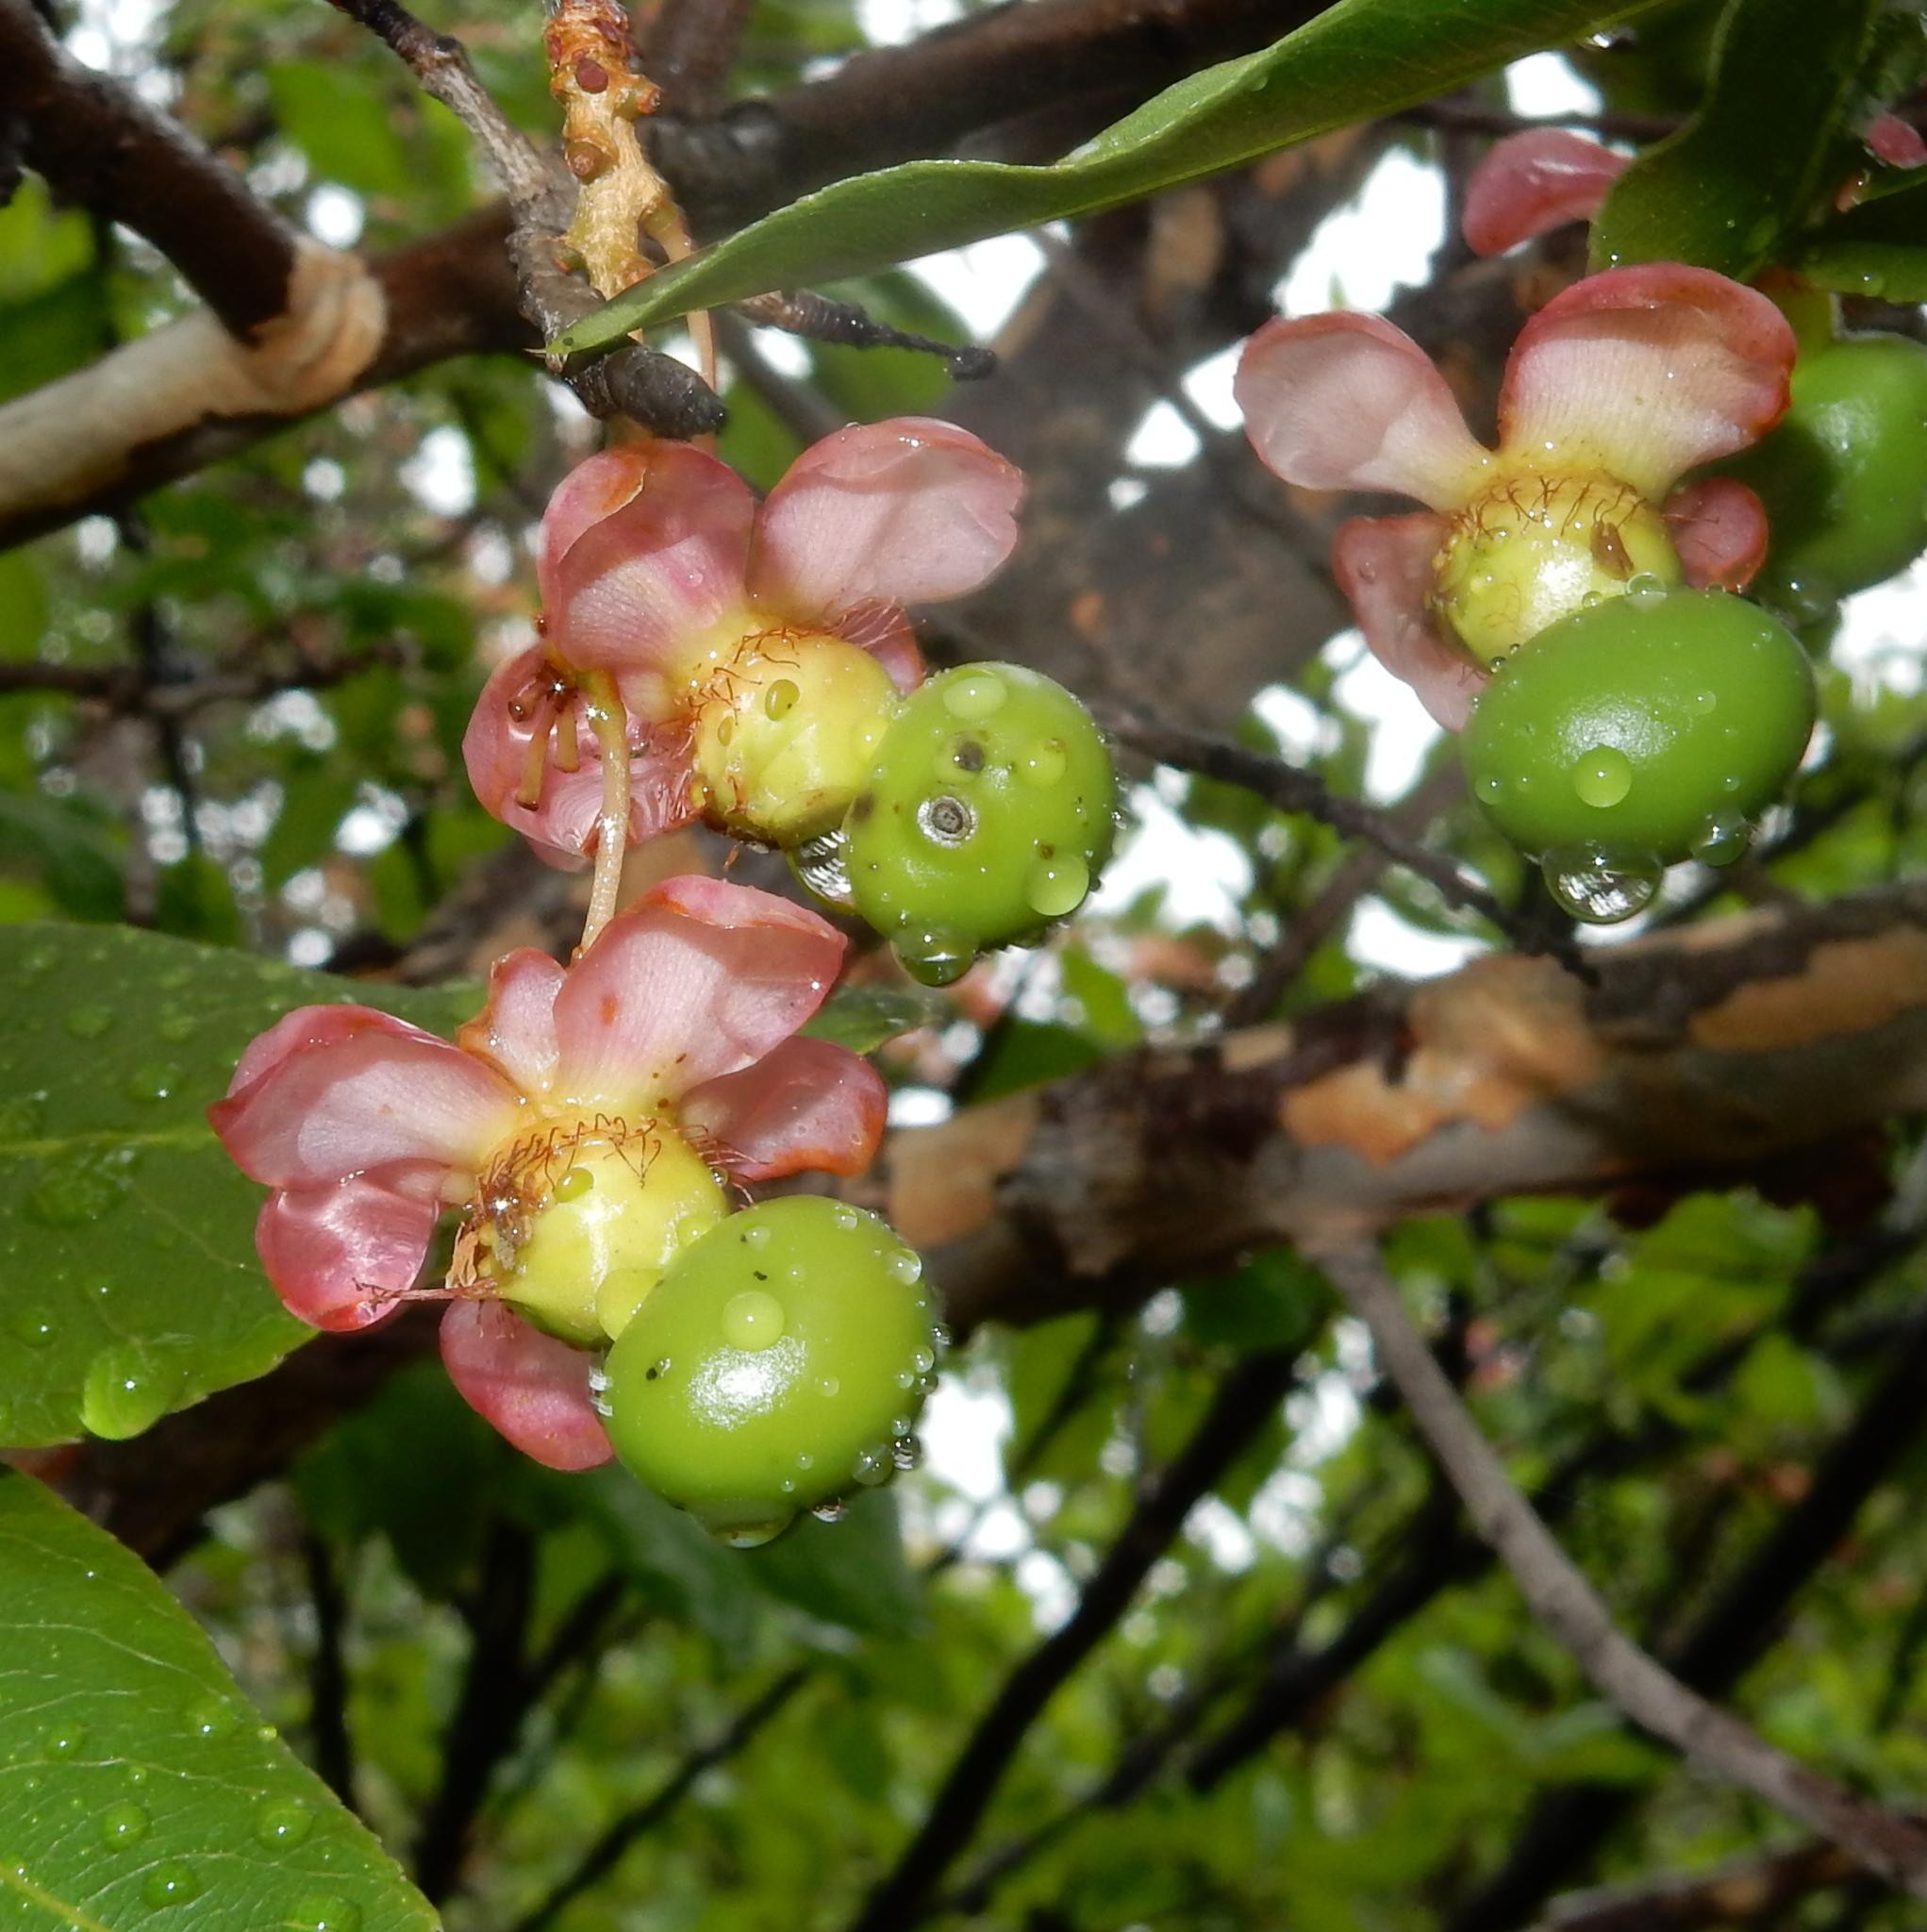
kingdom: Plantae
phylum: Tracheophyta
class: Magnoliopsida
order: Malpighiales
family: Ochnaceae
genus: Ochna
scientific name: Ochna pulchra
